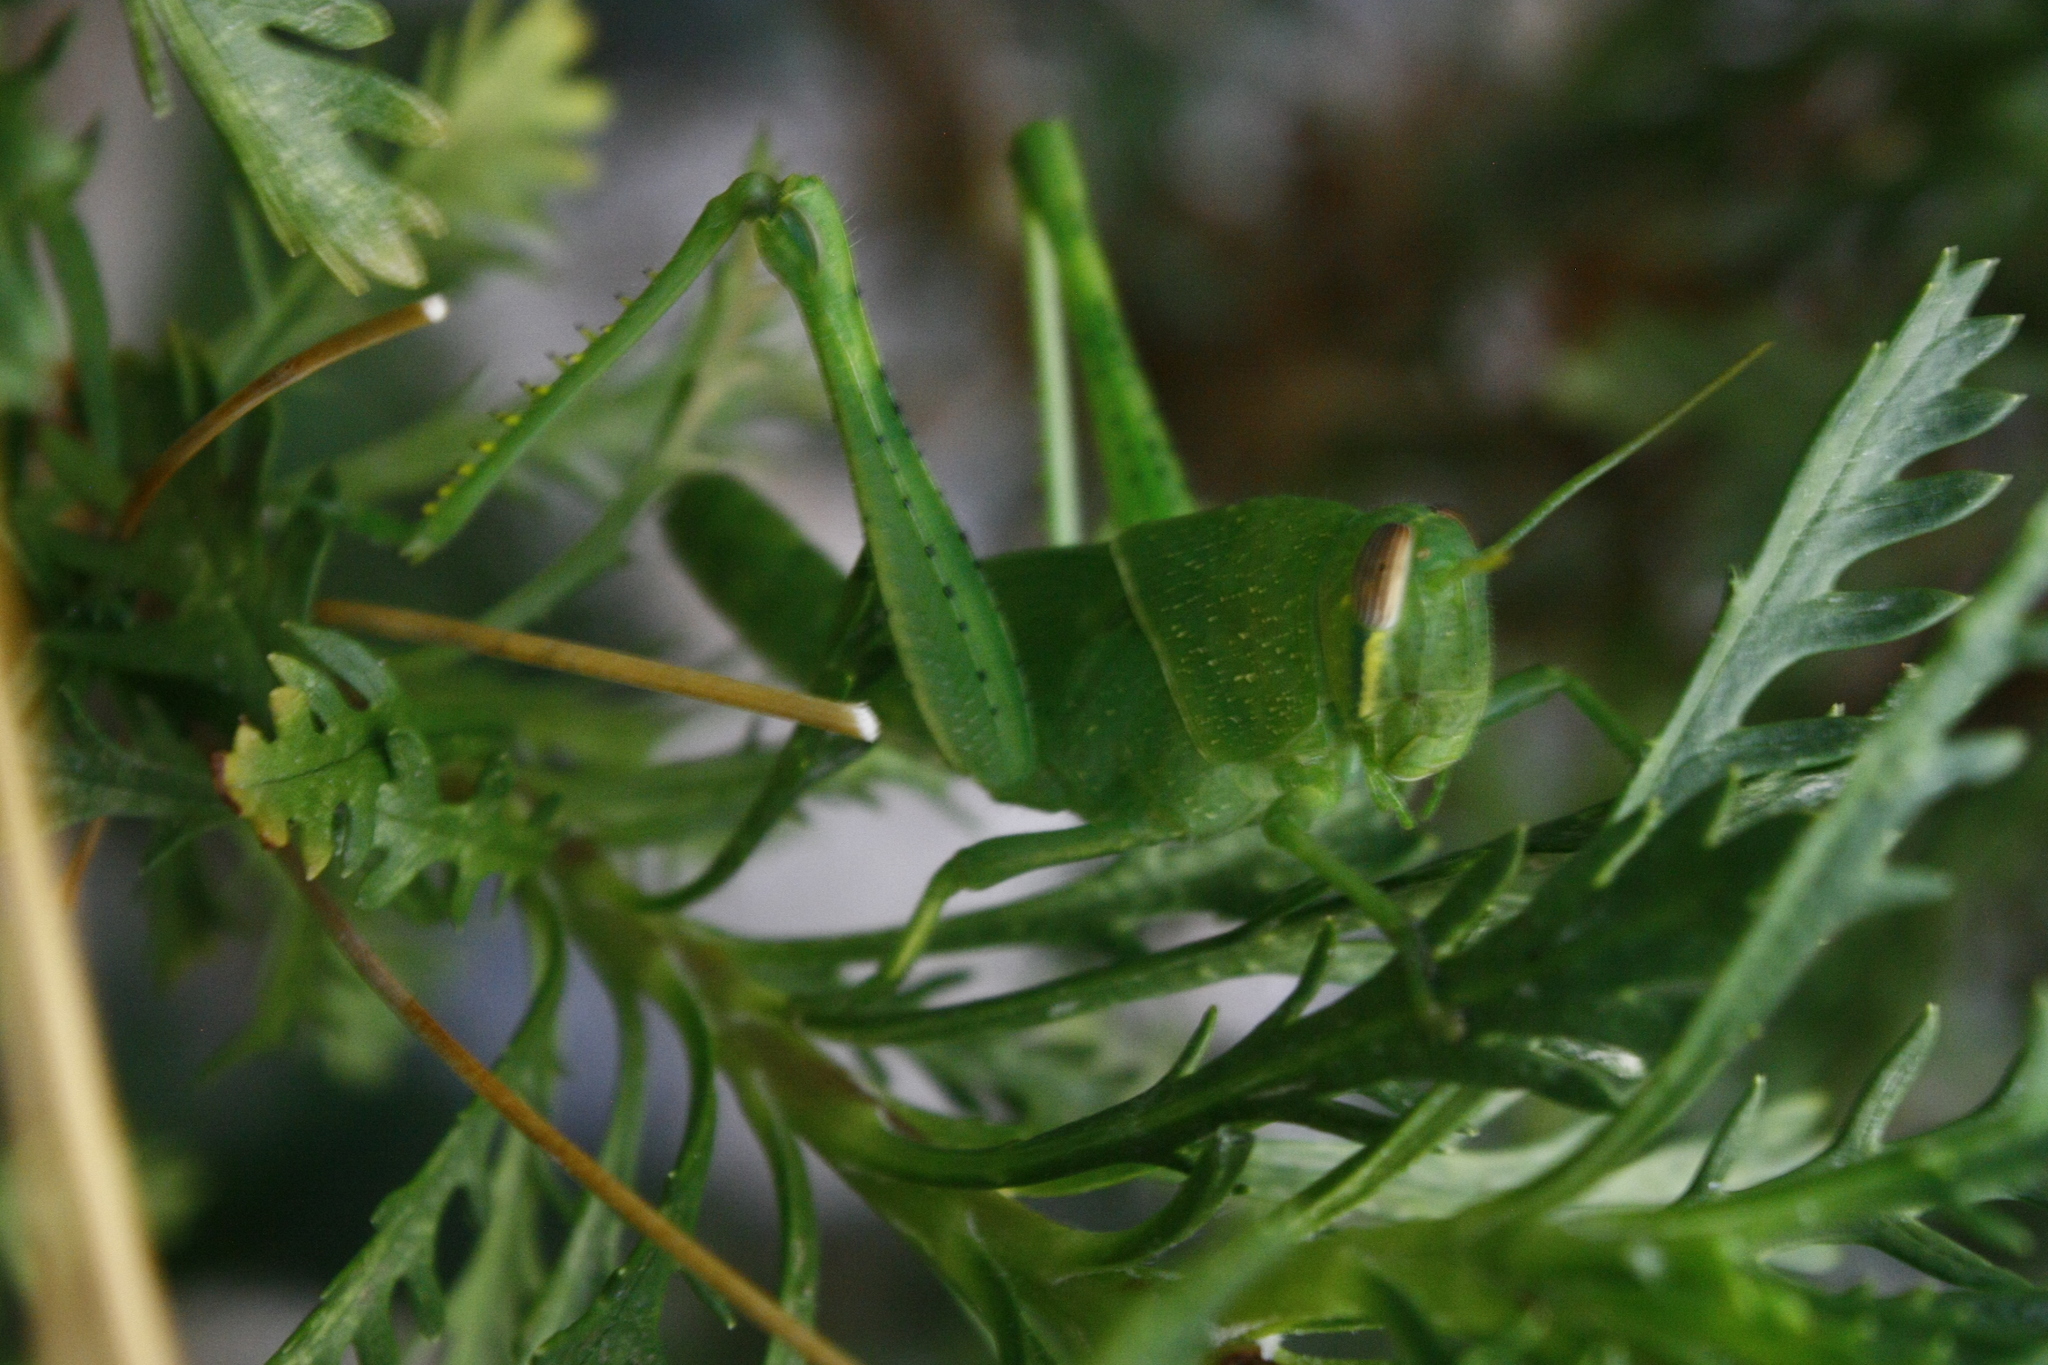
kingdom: Animalia
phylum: Arthropoda
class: Insecta
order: Orthoptera
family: Acrididae
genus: Schistocerca
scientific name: Schistocerca nitens
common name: Vagrant grasshopper
